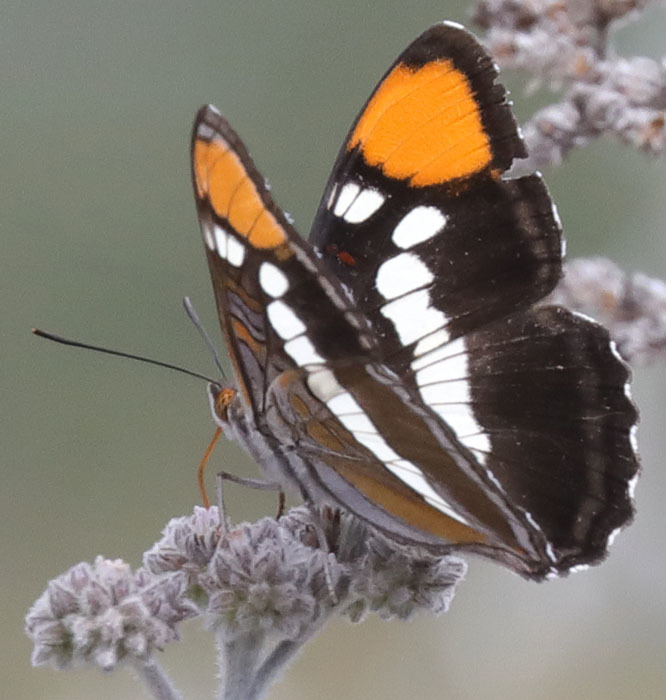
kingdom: Animalia
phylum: Arthropoda
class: Insecta
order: Lepidoptera
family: Nymphalidae
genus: Limenitis
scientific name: Limenitis bredowii
